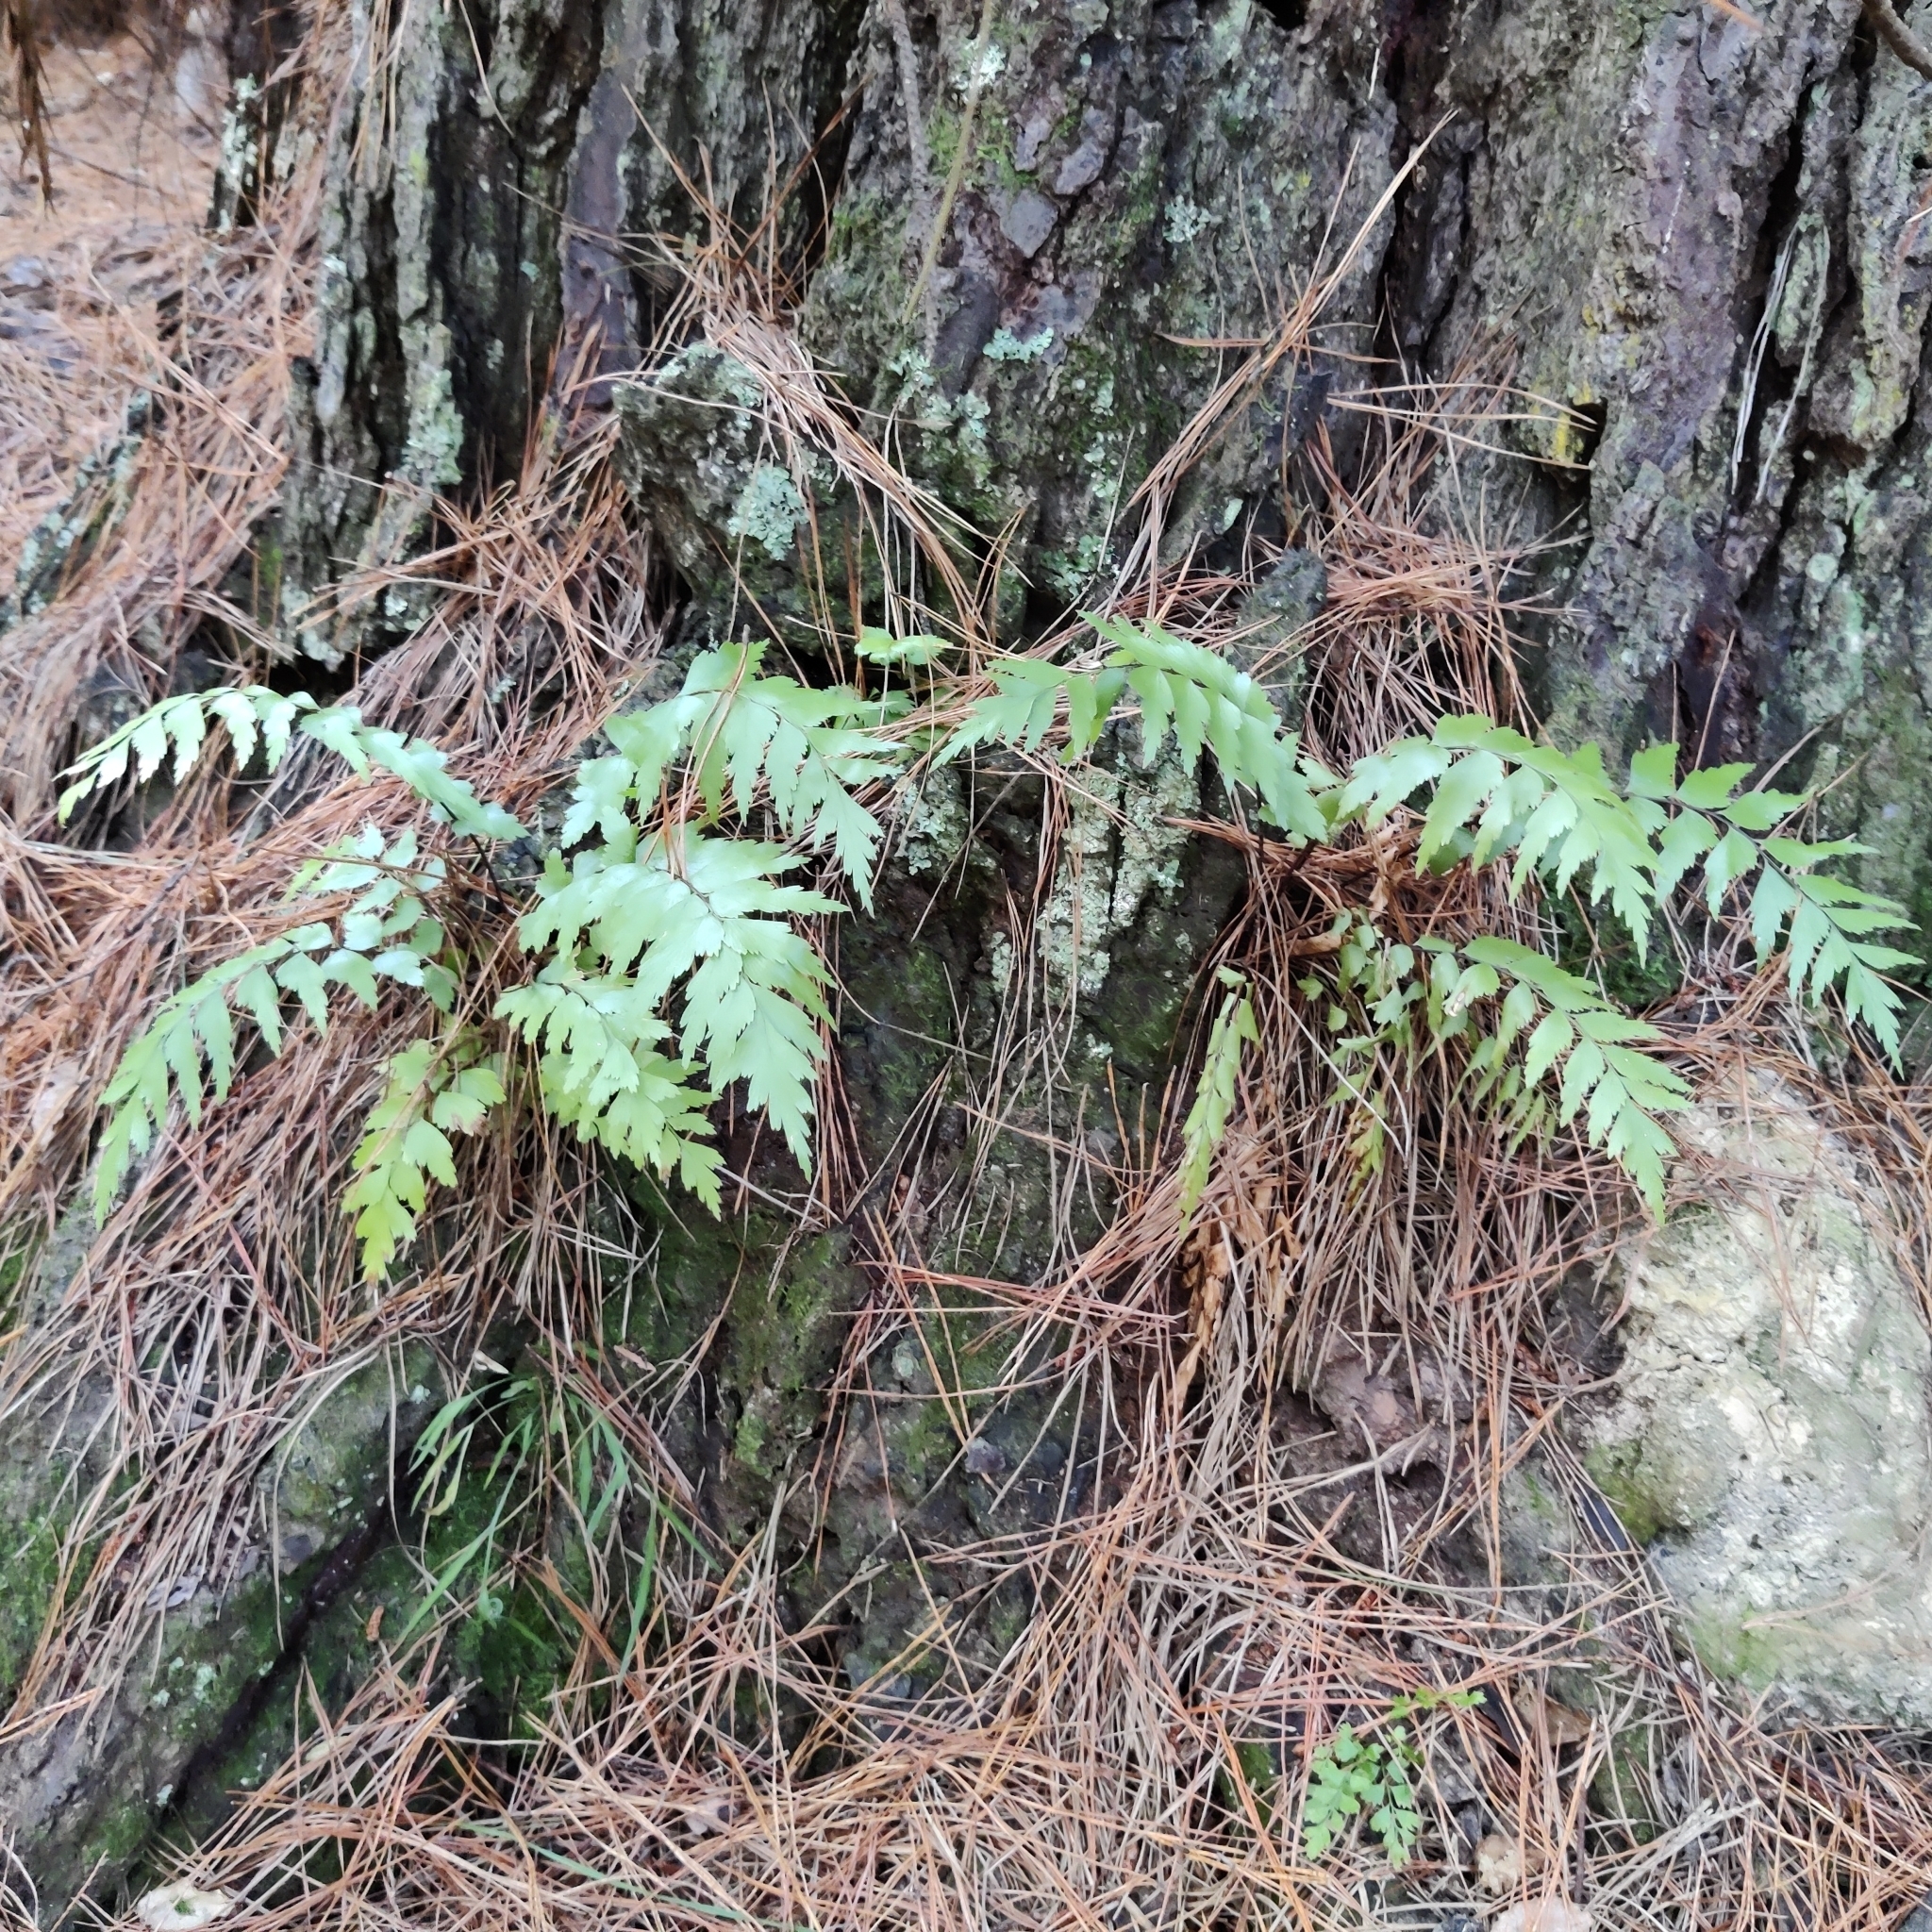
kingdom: Plantae
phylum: Tracheophyta
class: Polypodiopsida
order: Polypodiales
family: Aspleniaceae
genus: Asplenium
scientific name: Asplenium polyodon
